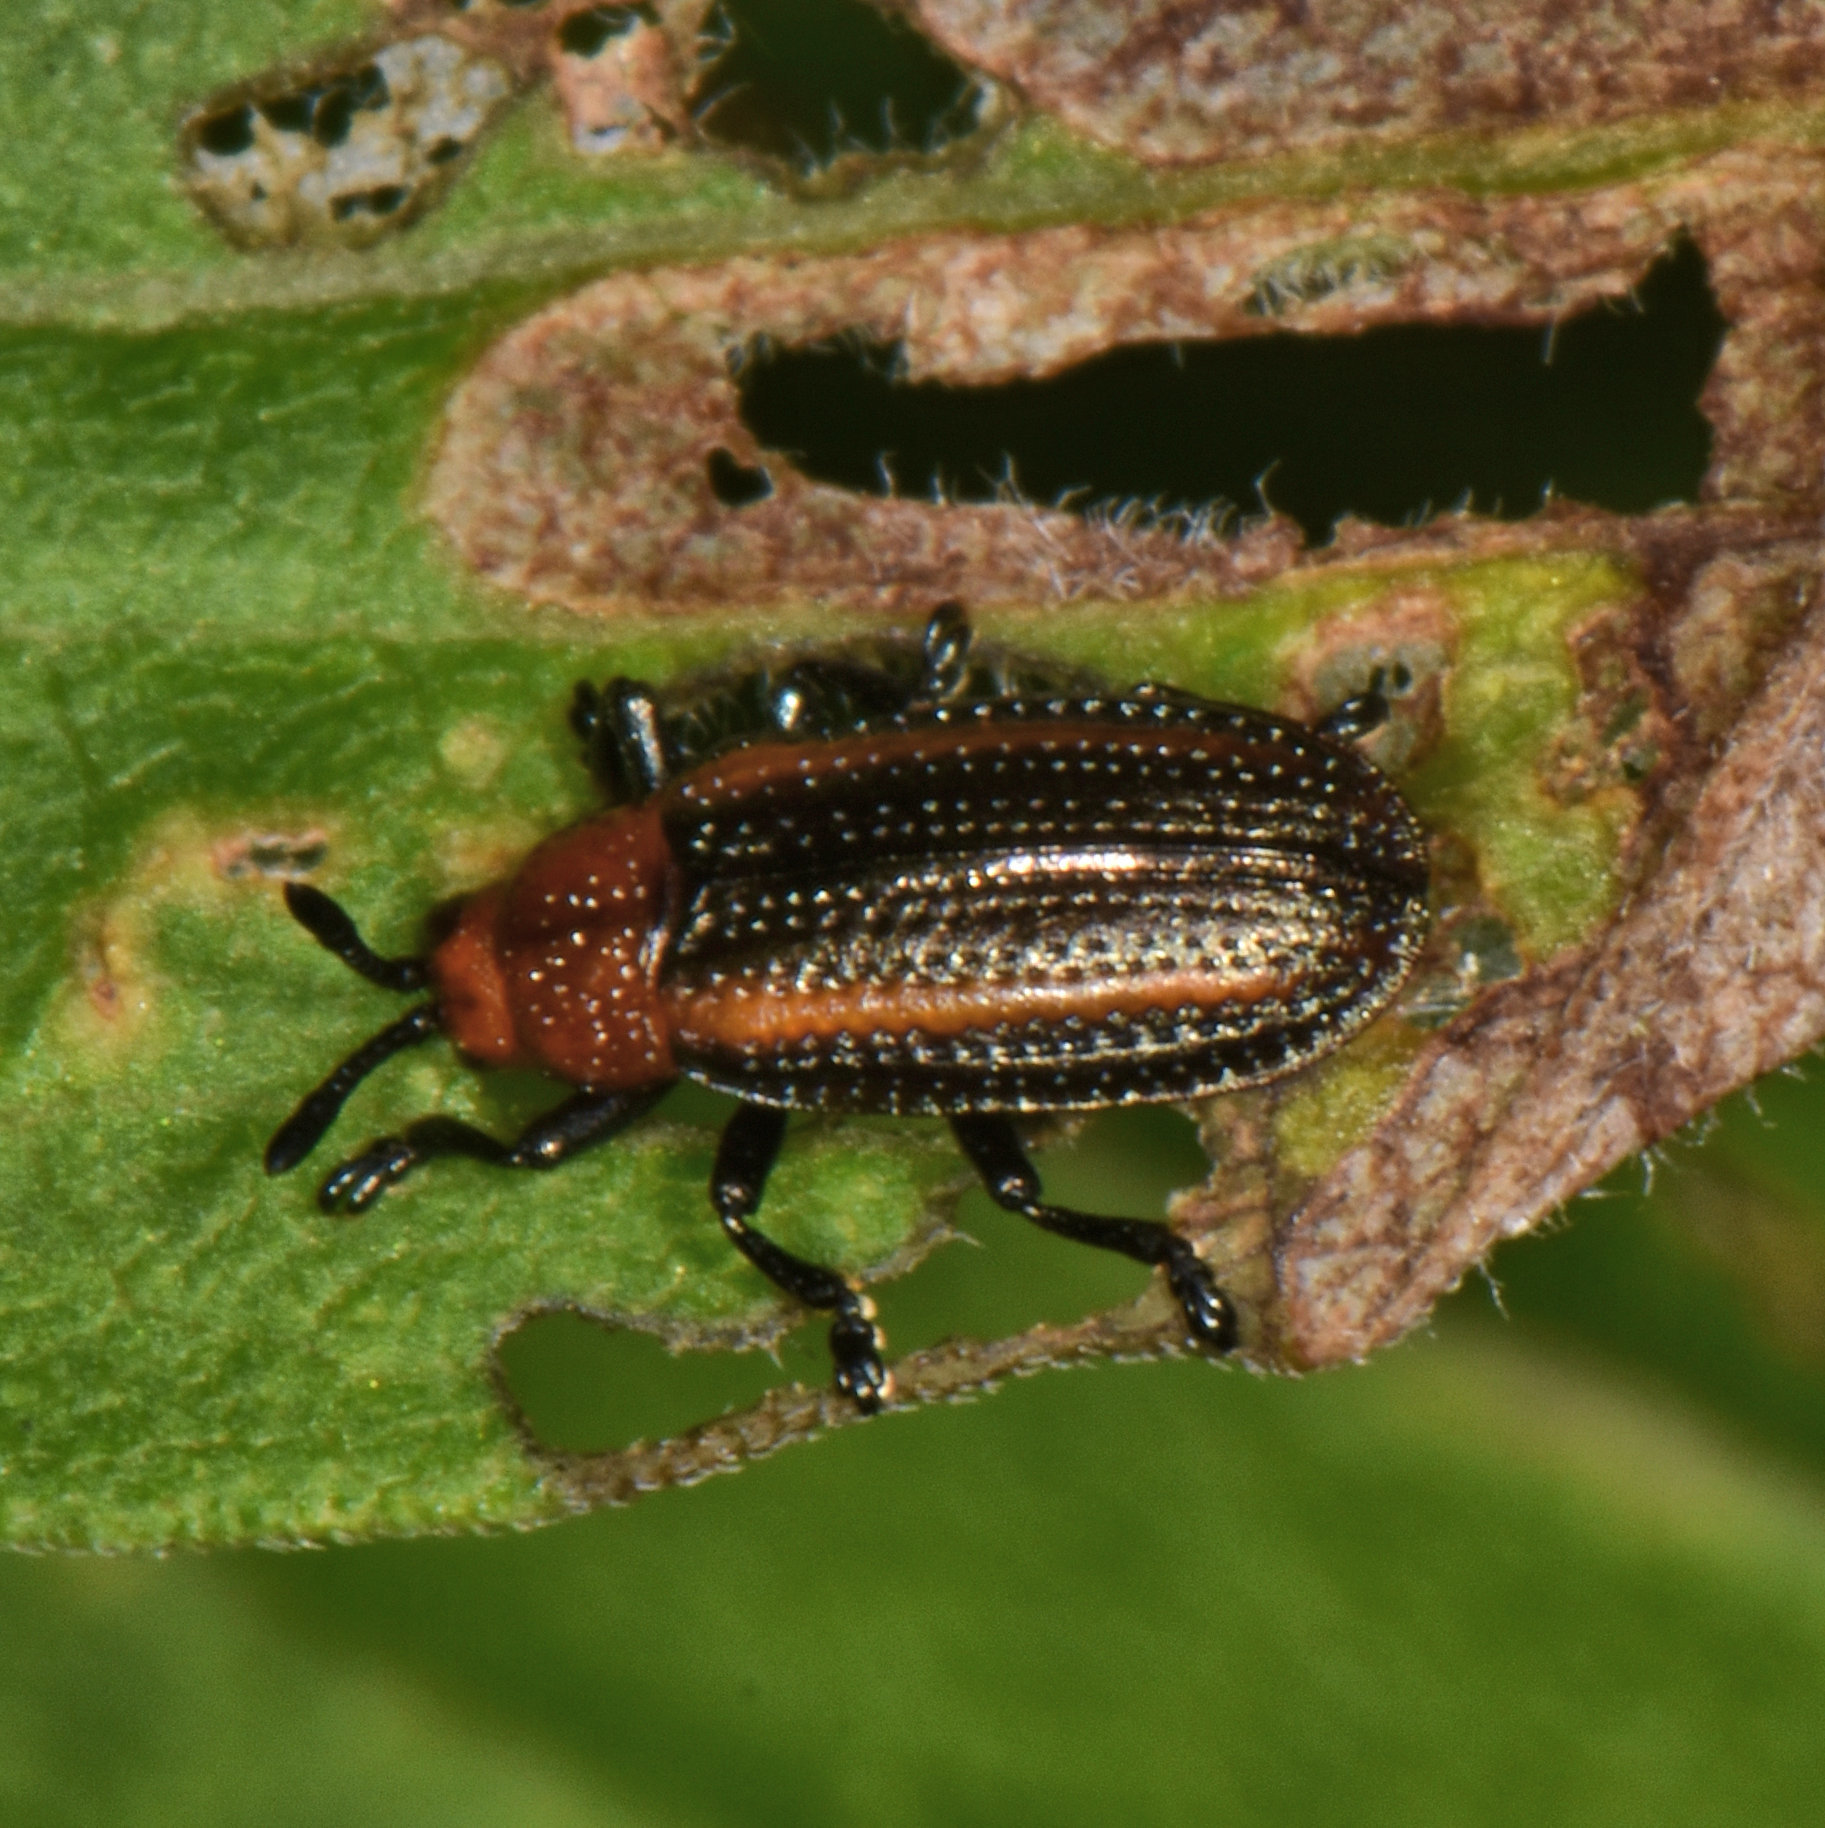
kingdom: Animalia
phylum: Arthropoda
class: Insecta
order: Coleoptera
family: Chrysomelidae
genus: Microrhopala
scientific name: Microrhopala vittata
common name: Goldenrod leaf miner beetle
